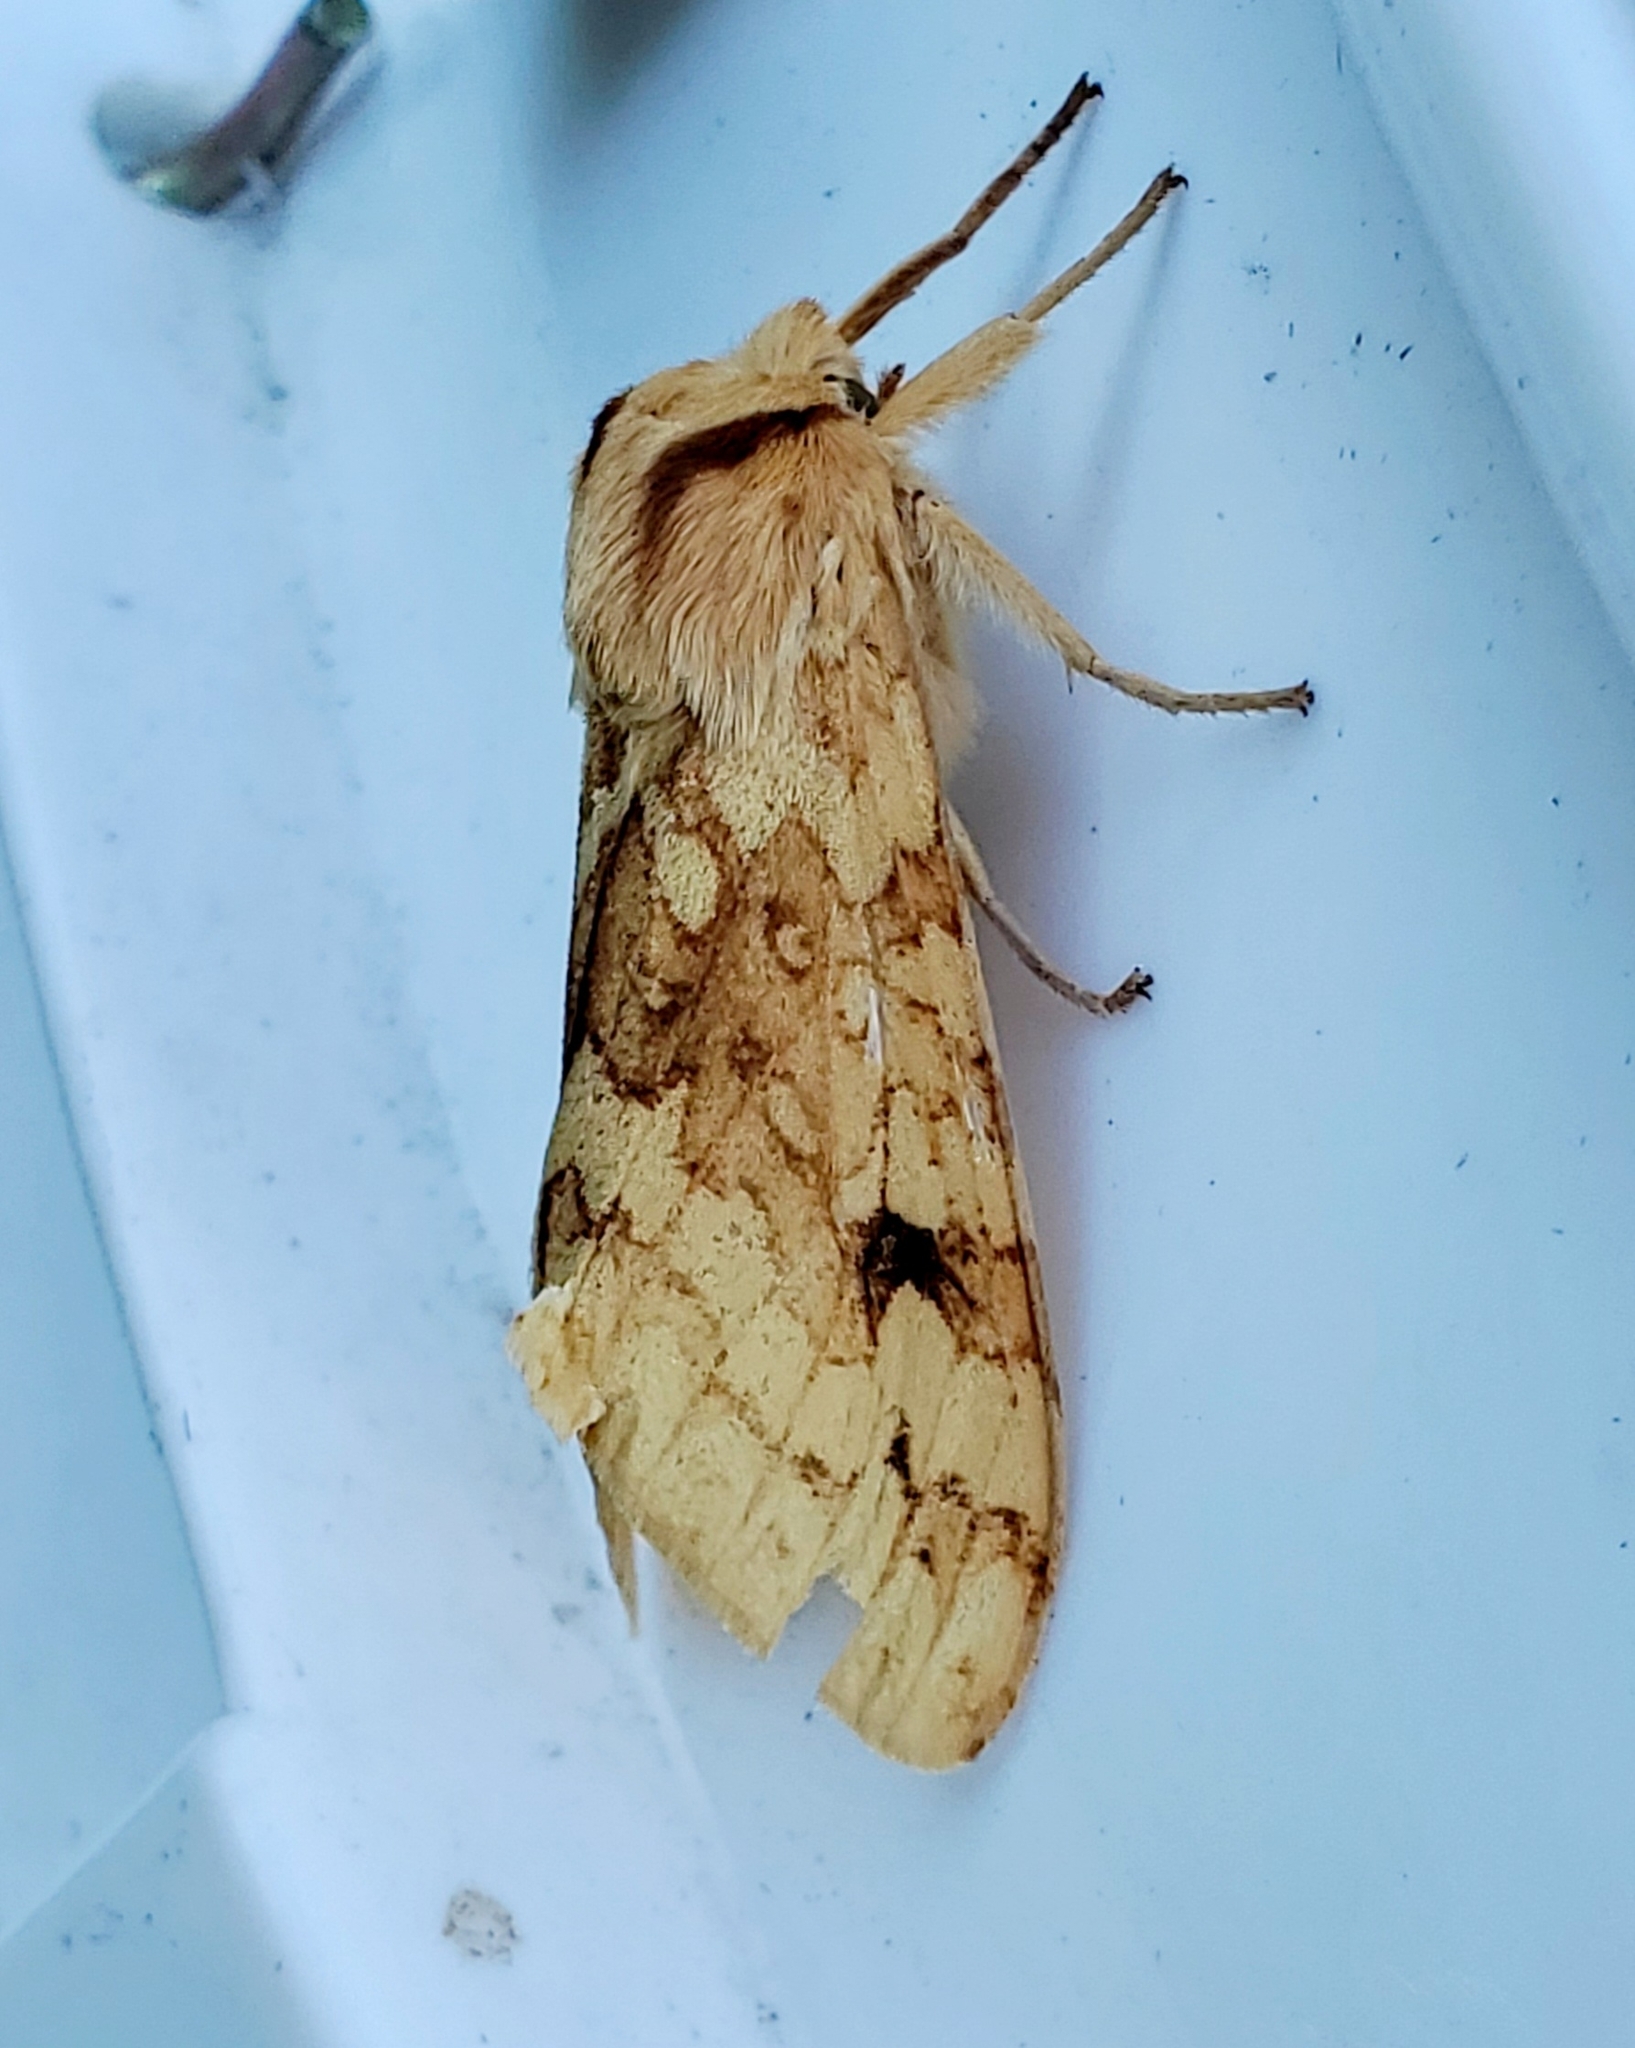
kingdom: Animalia
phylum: Arthropoda
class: Insecta
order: Lepidoptera
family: Erebidae
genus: Lophocampa
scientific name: Lophocampa maculata
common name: Spotted tussock moth
